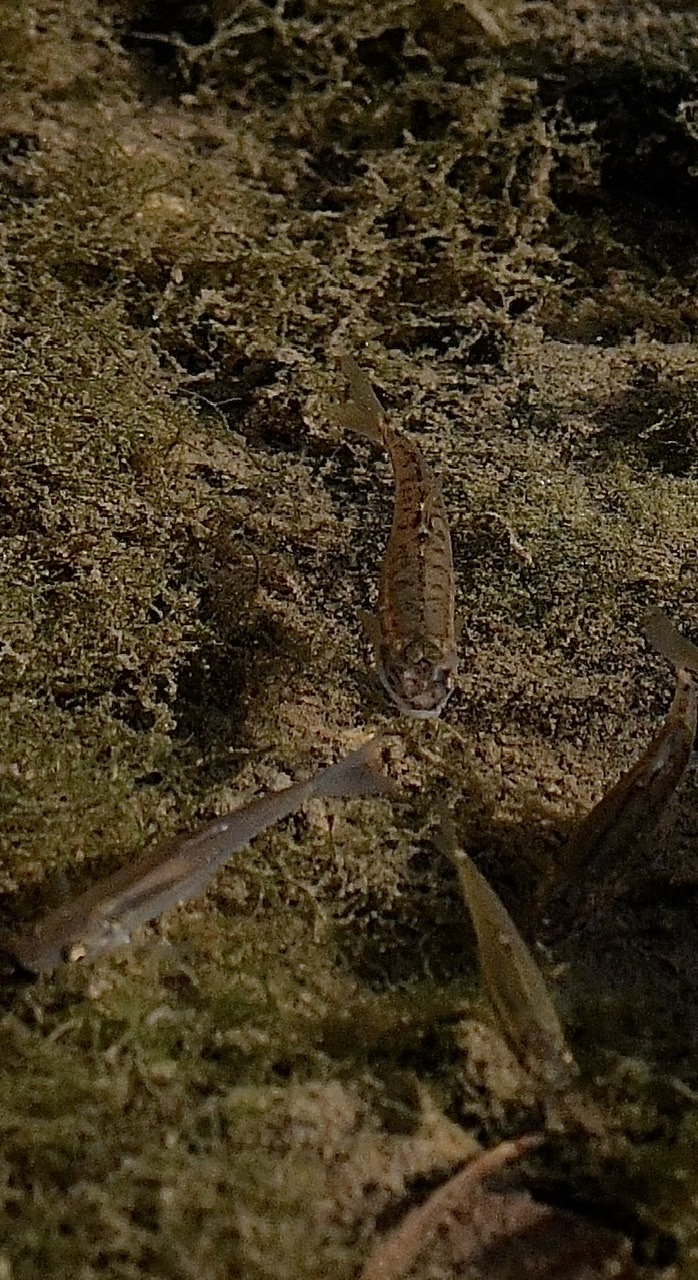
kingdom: Animalia
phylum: Chordata
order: Cypriniformes
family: Cyprinidae
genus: Phoxinus
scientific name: Phoxinus phoxinus
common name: Minnow
